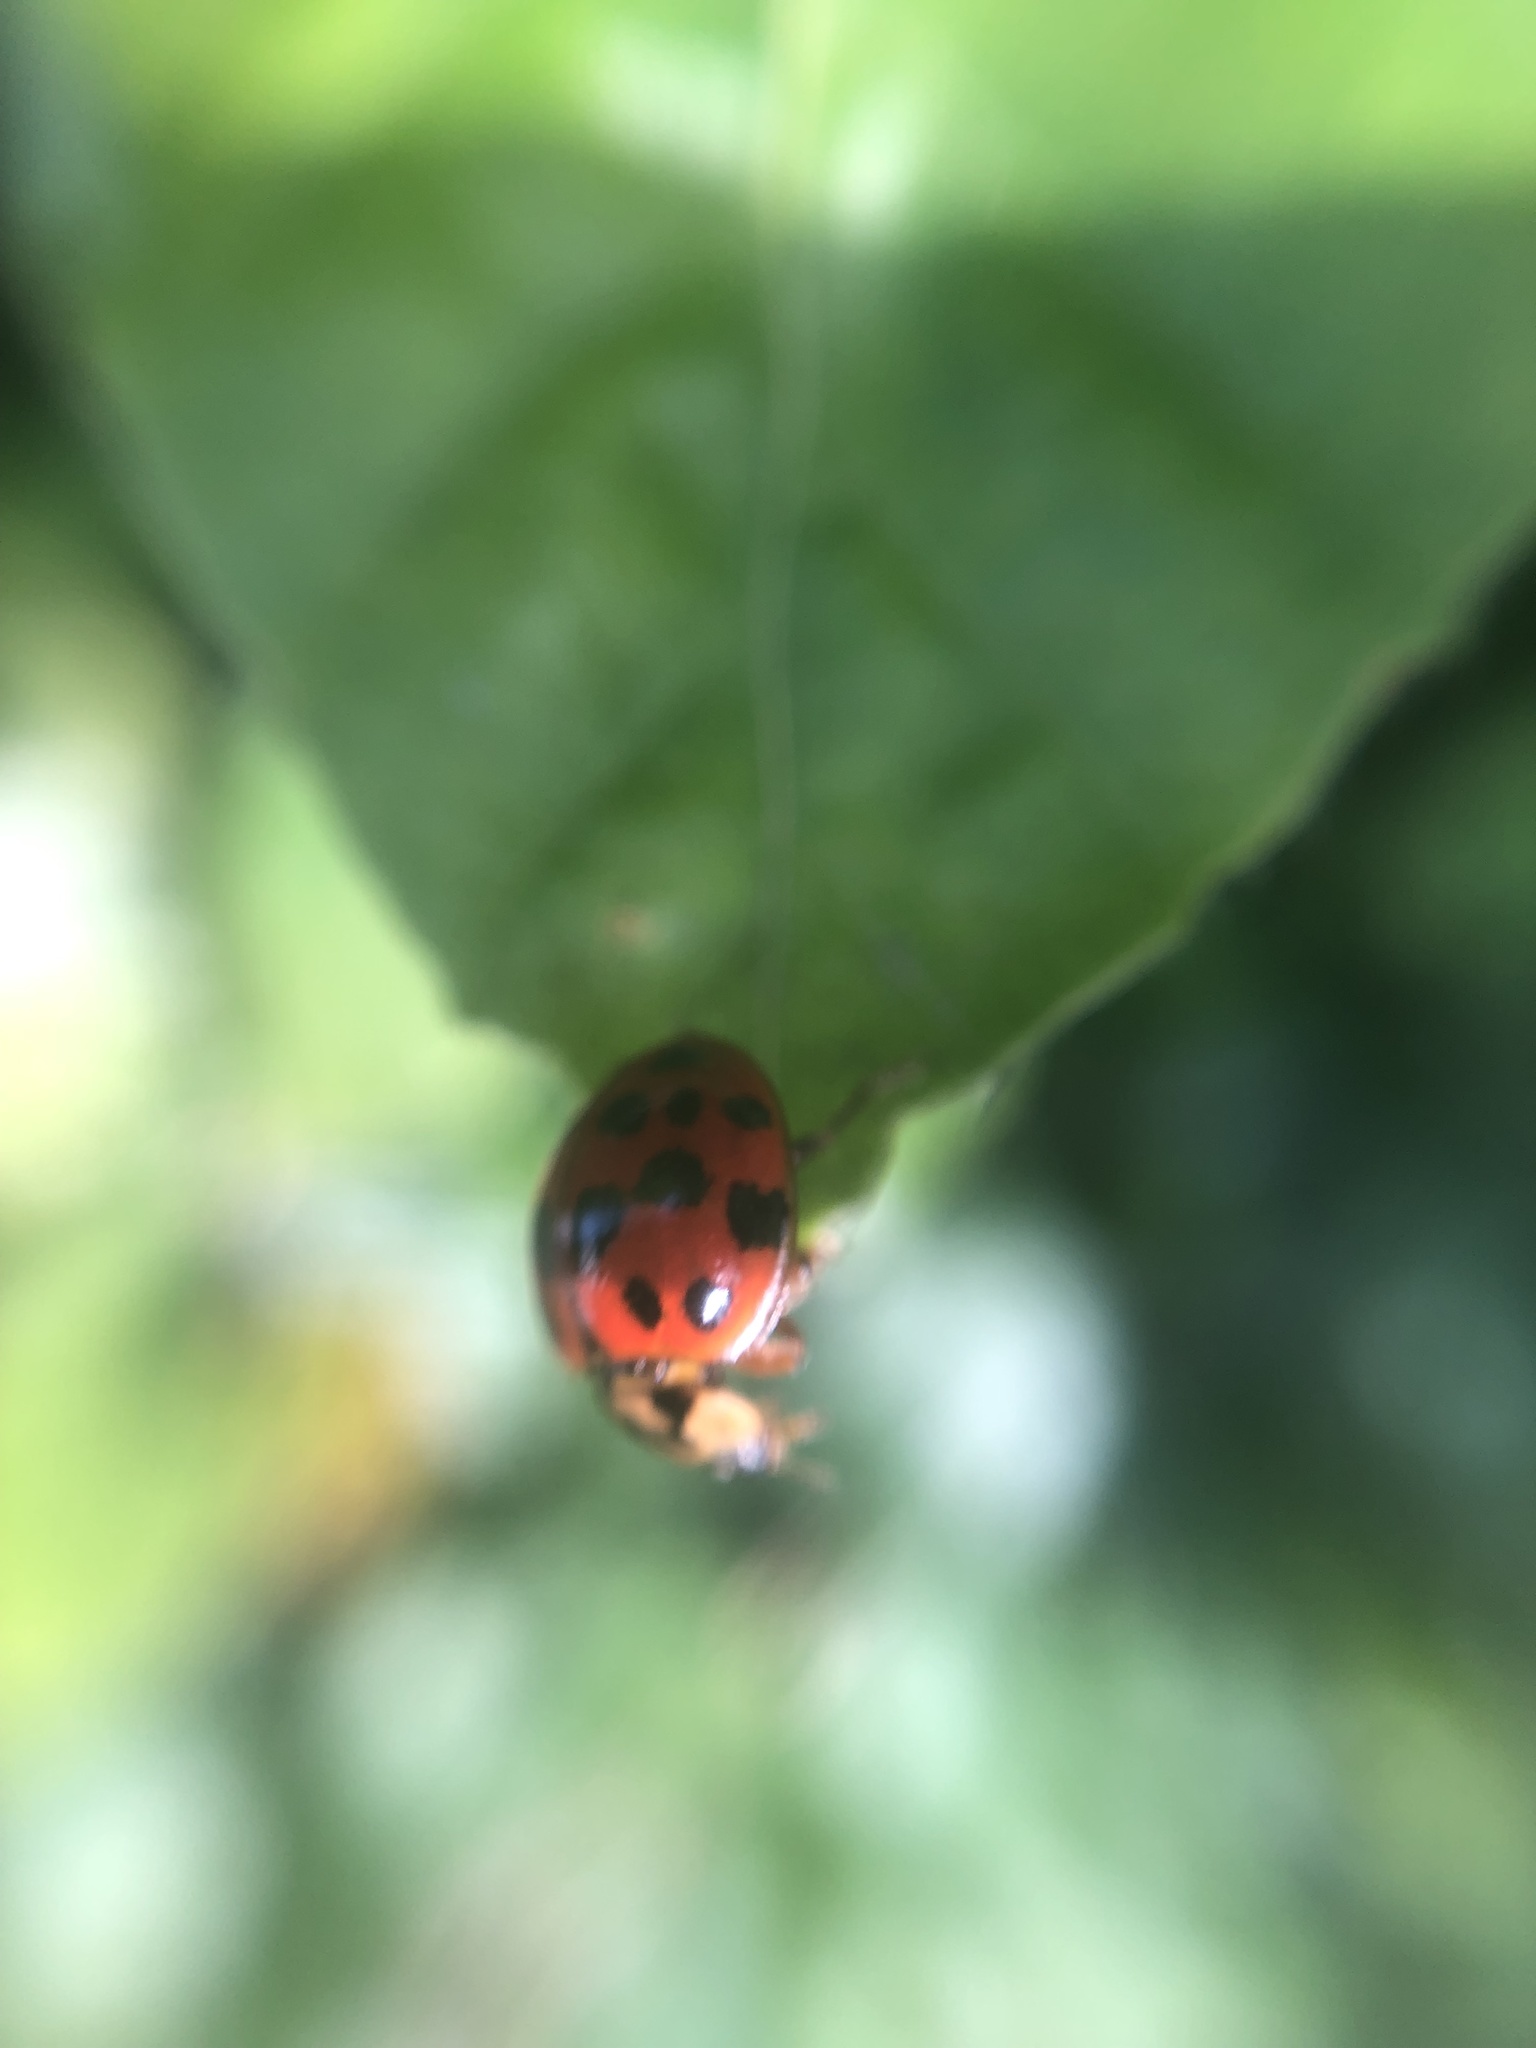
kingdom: Animalia
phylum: Arthropoda
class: Insecta
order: Coleoptera
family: Coccinellidae
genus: Harmonia
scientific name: Harmonia axyridis
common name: Harlequin ladybird
